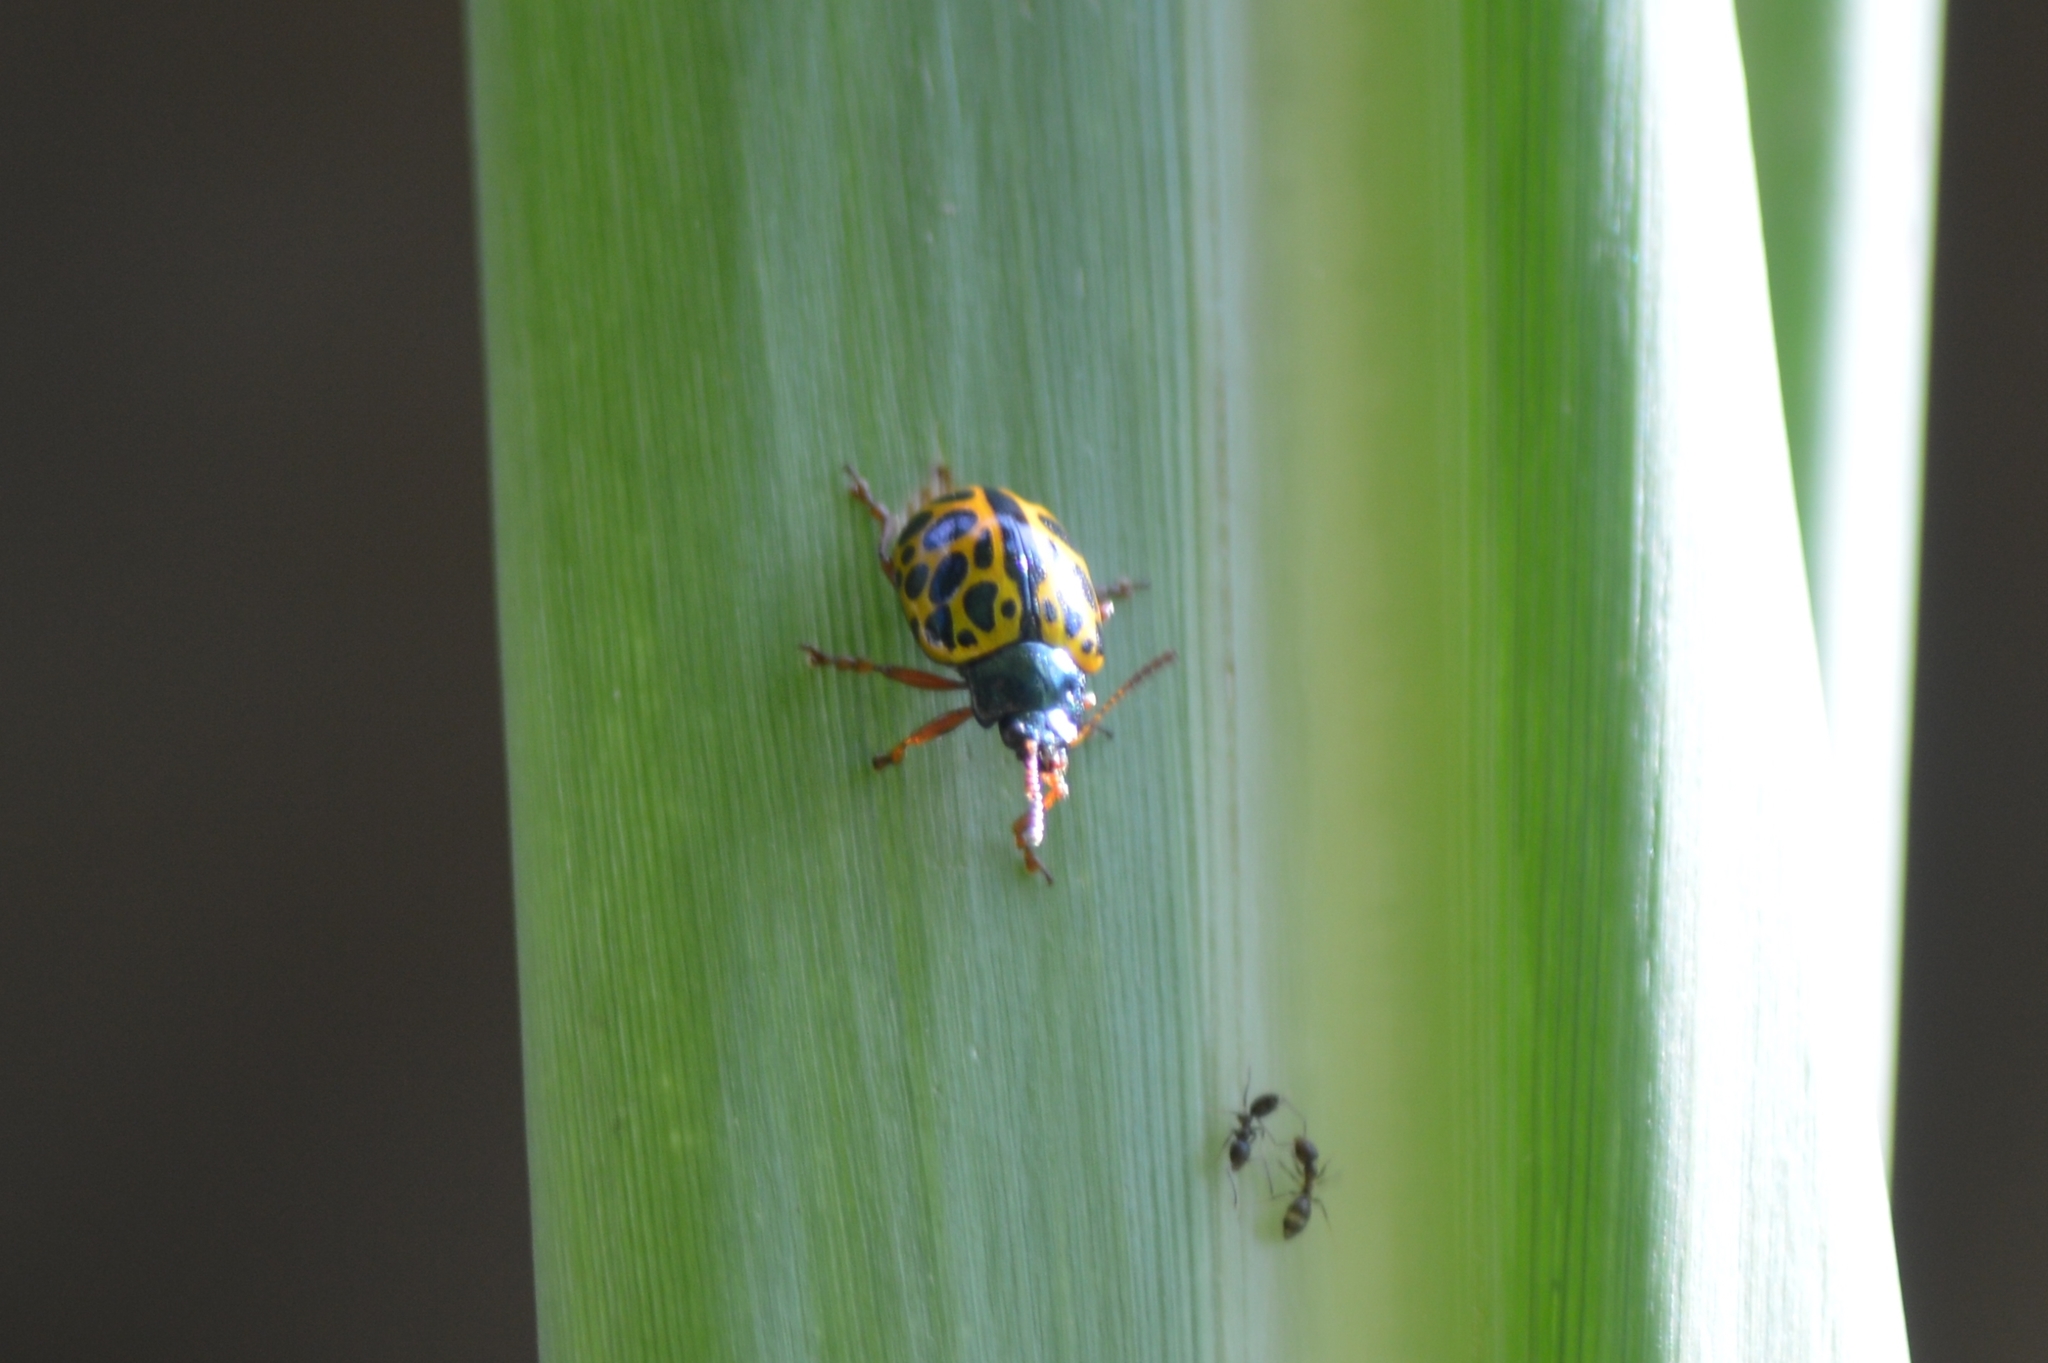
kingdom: Animalia
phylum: Arthropoda
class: Insecta
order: Coleoptera
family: Chrysomelidae
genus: Calligrapha
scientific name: Calligrapha polyspila
